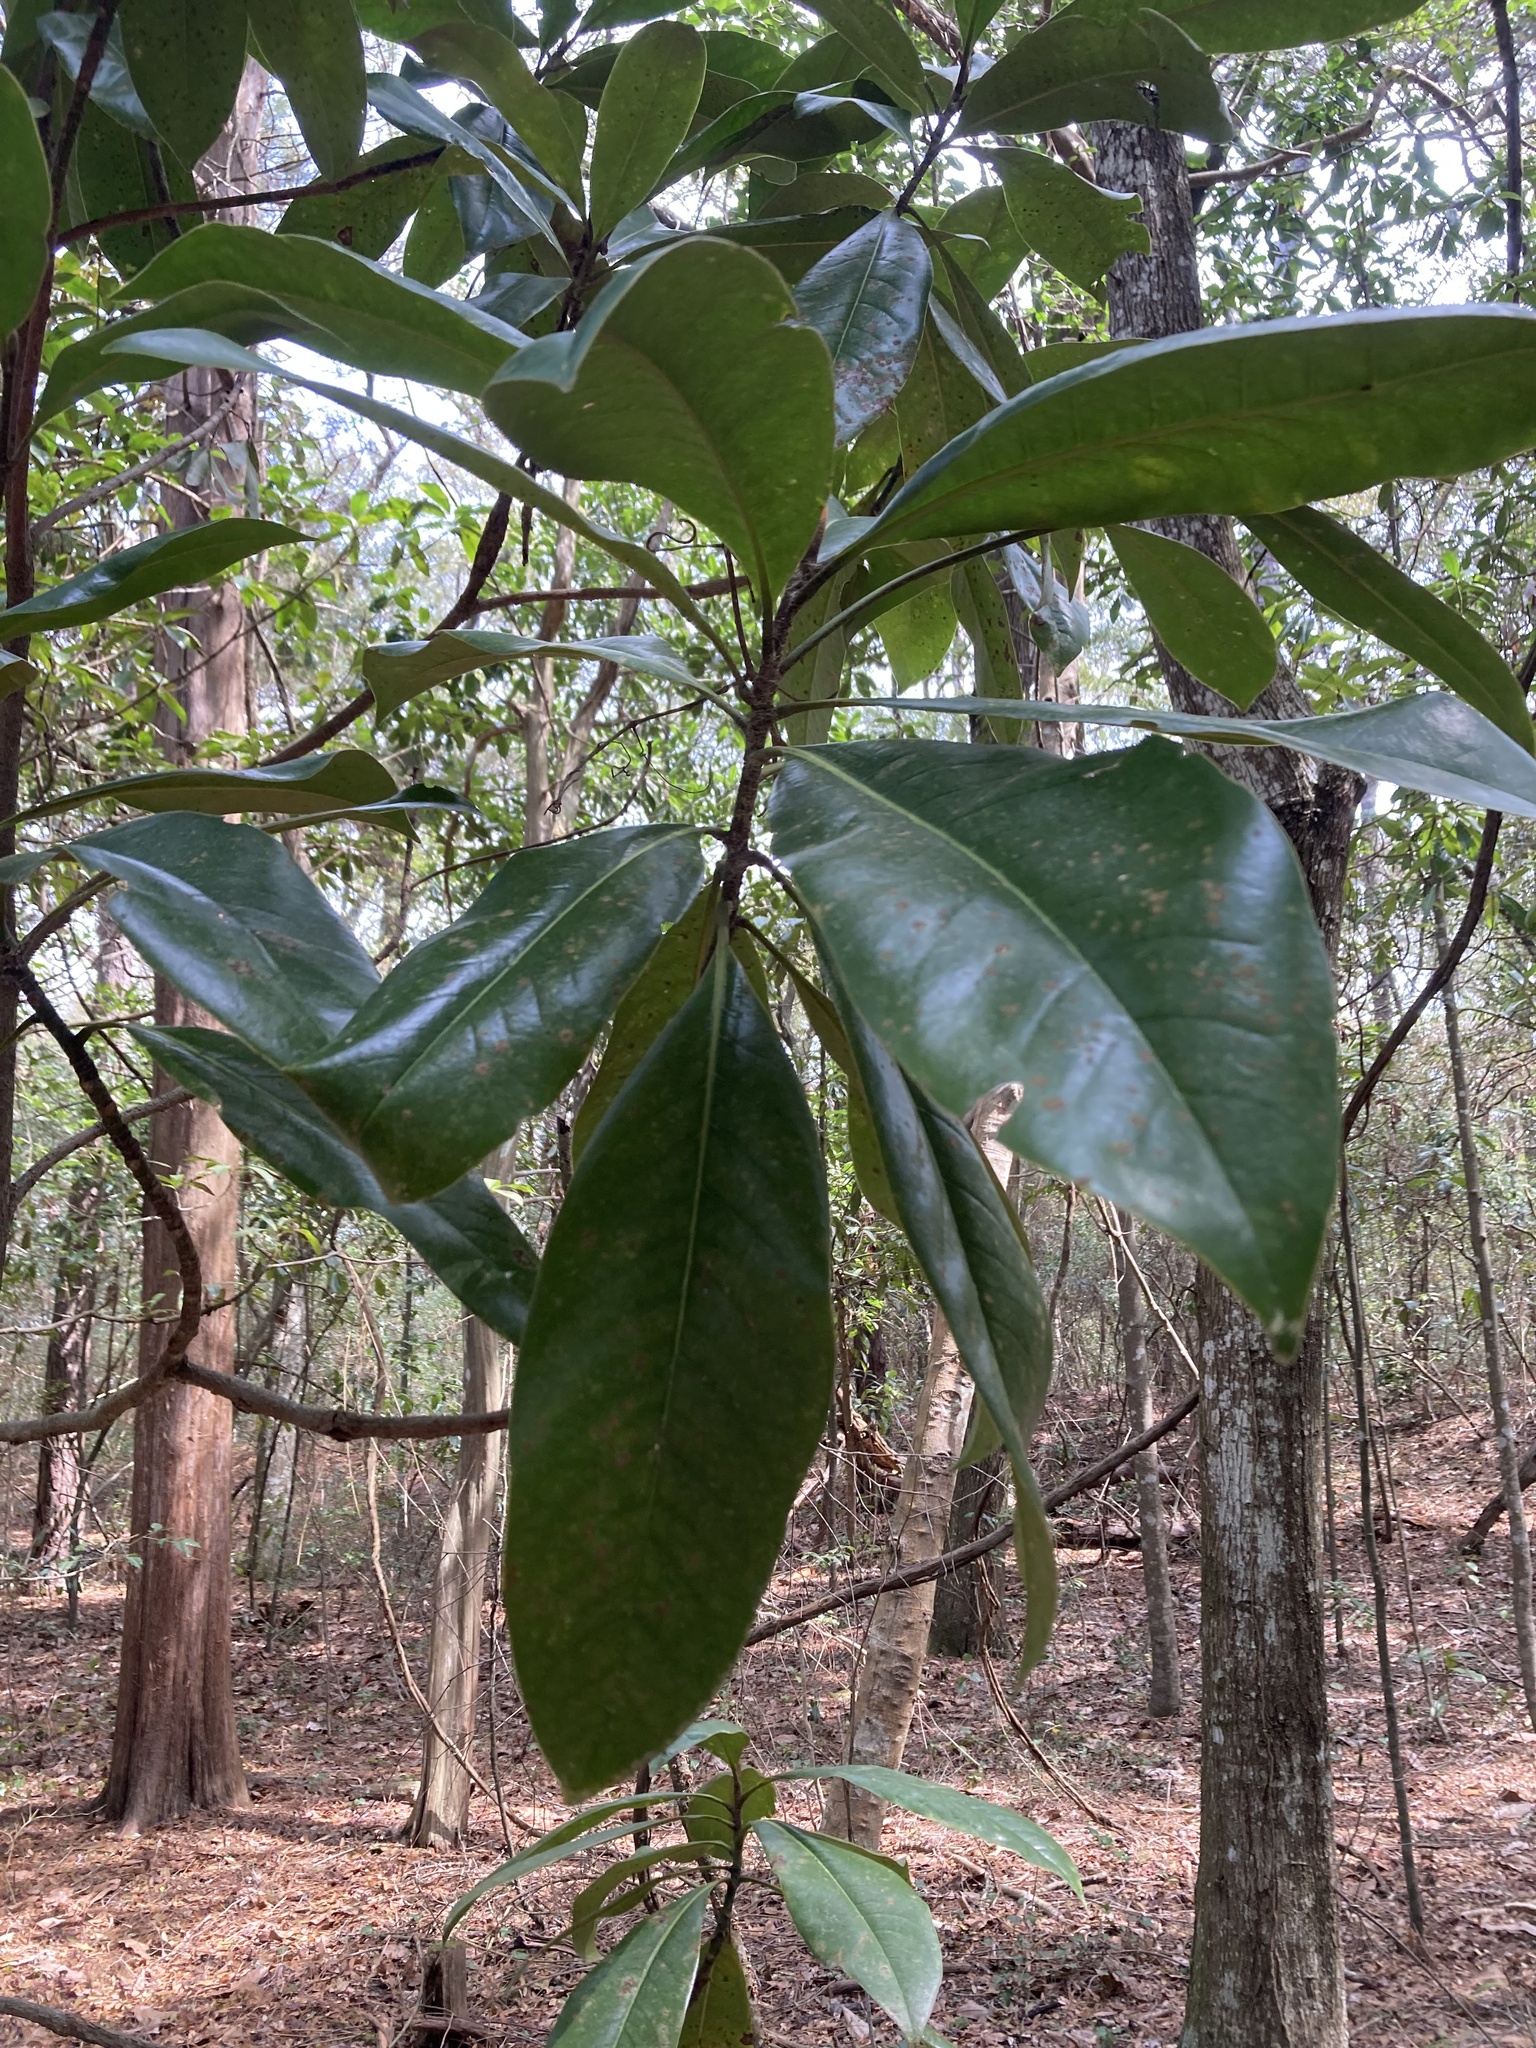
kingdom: Plantae
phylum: Tracheophyta
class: Magnoliopsida
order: Magnoliales
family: Magnoliaceae
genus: Magnolia
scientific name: Magnolia grandiflora
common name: Southern magnolia
